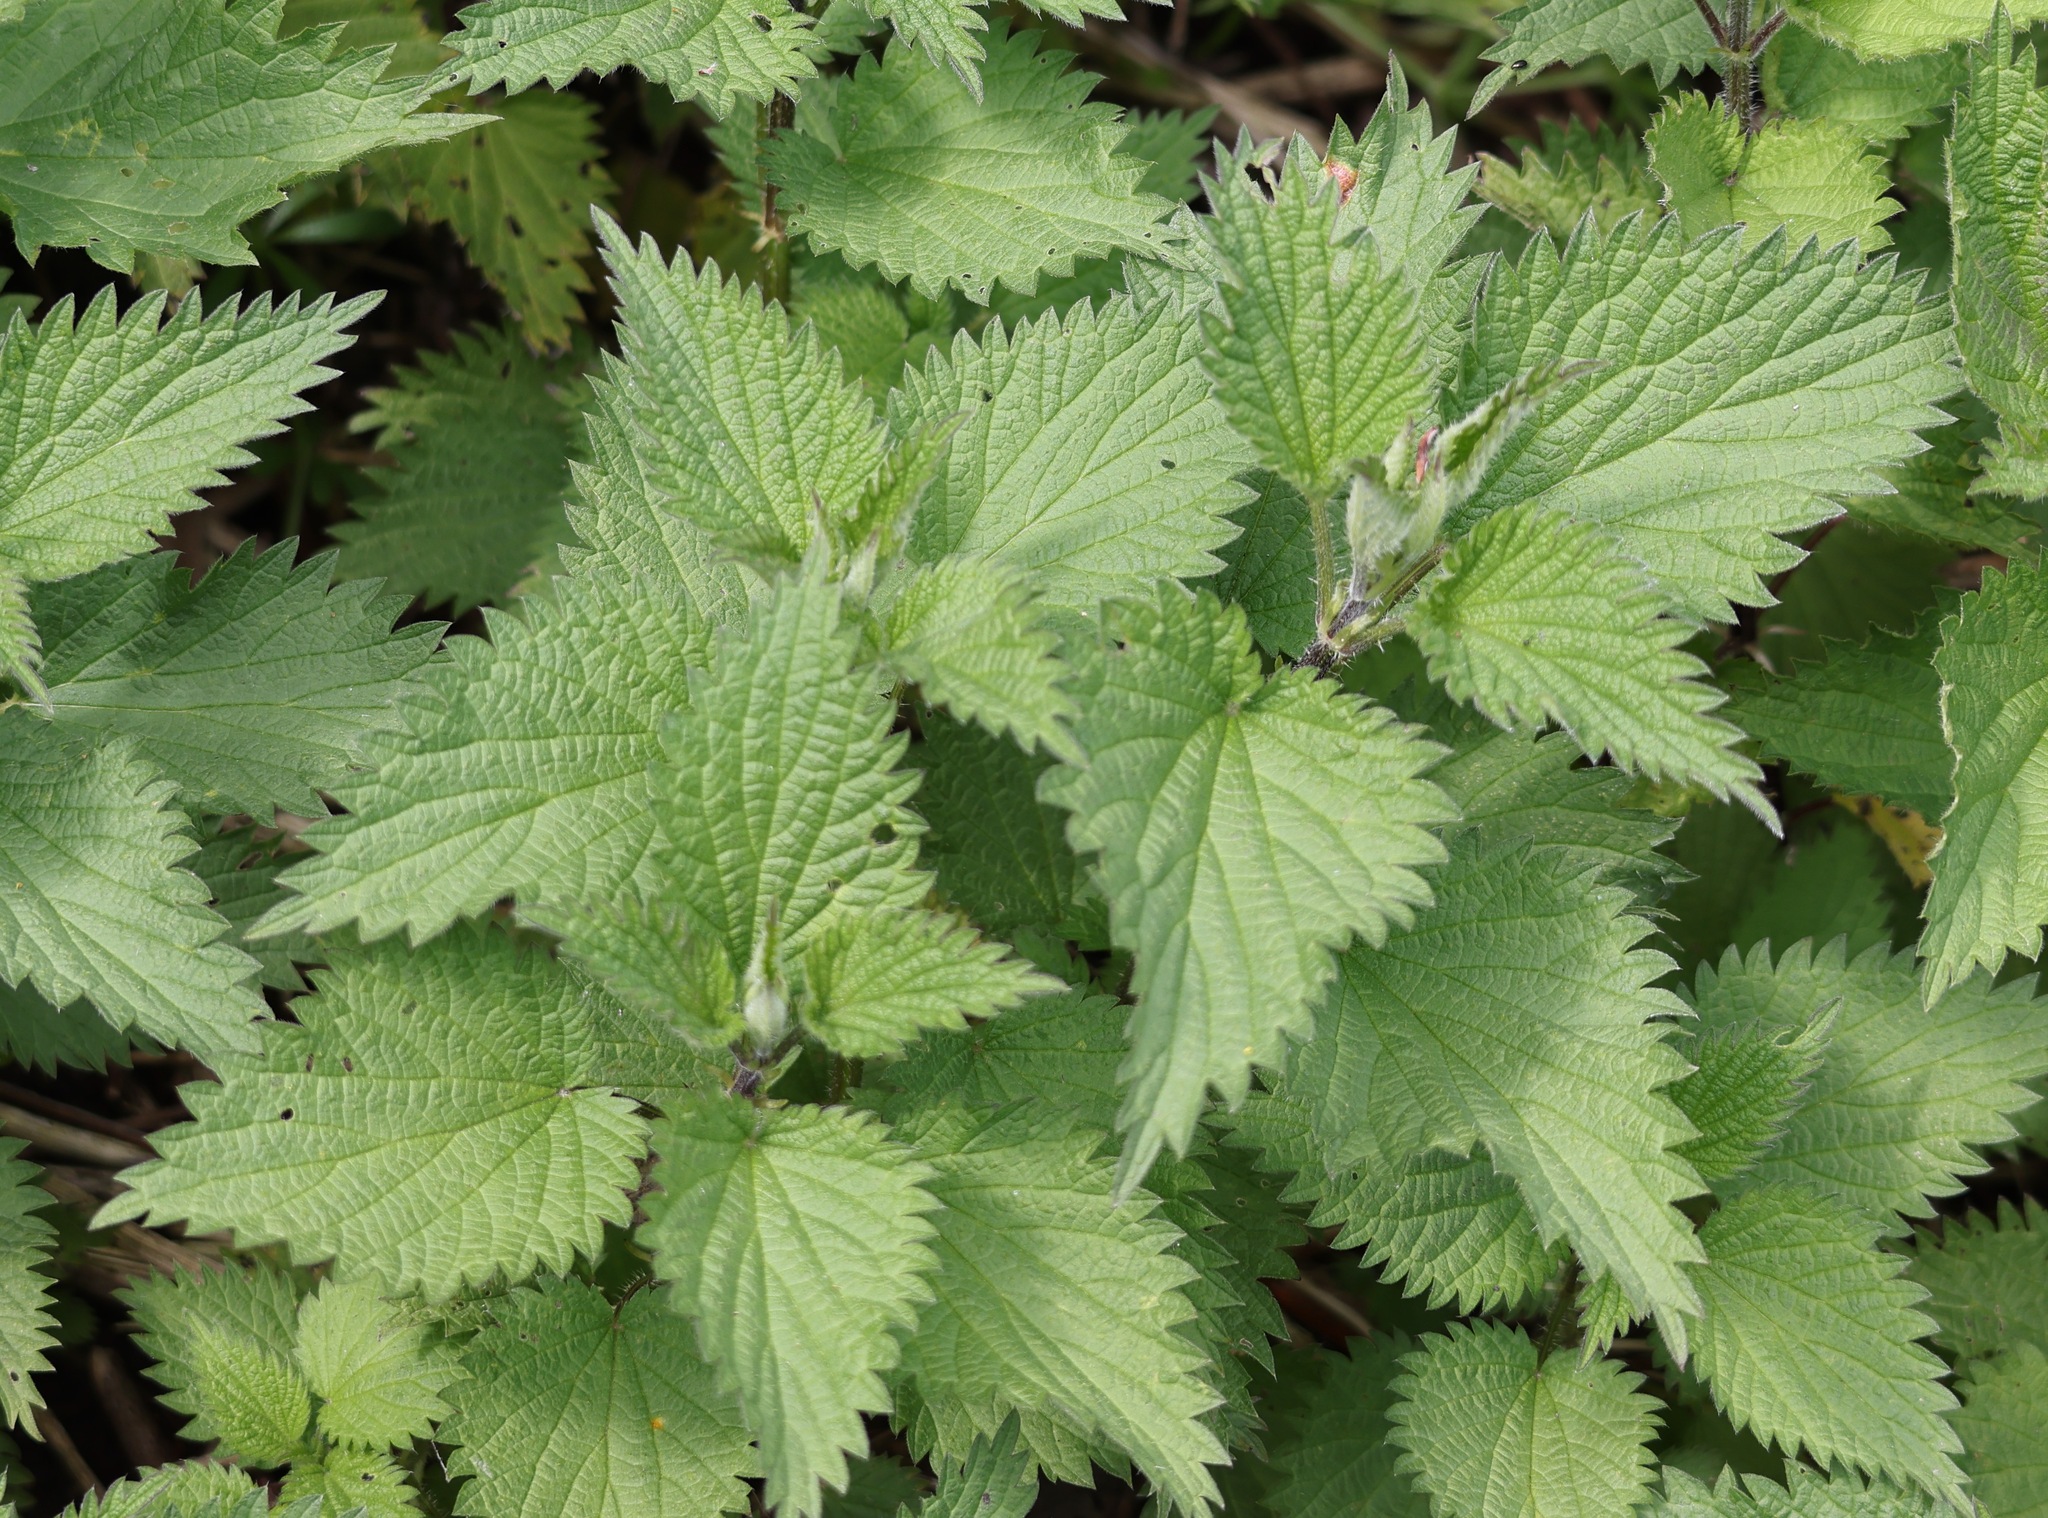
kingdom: Plantae
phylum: Tracheophyta
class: Magnoliopsida
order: Rosales
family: Urticaceae
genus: Urtica
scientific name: Urtica dioica
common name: Common nettle
